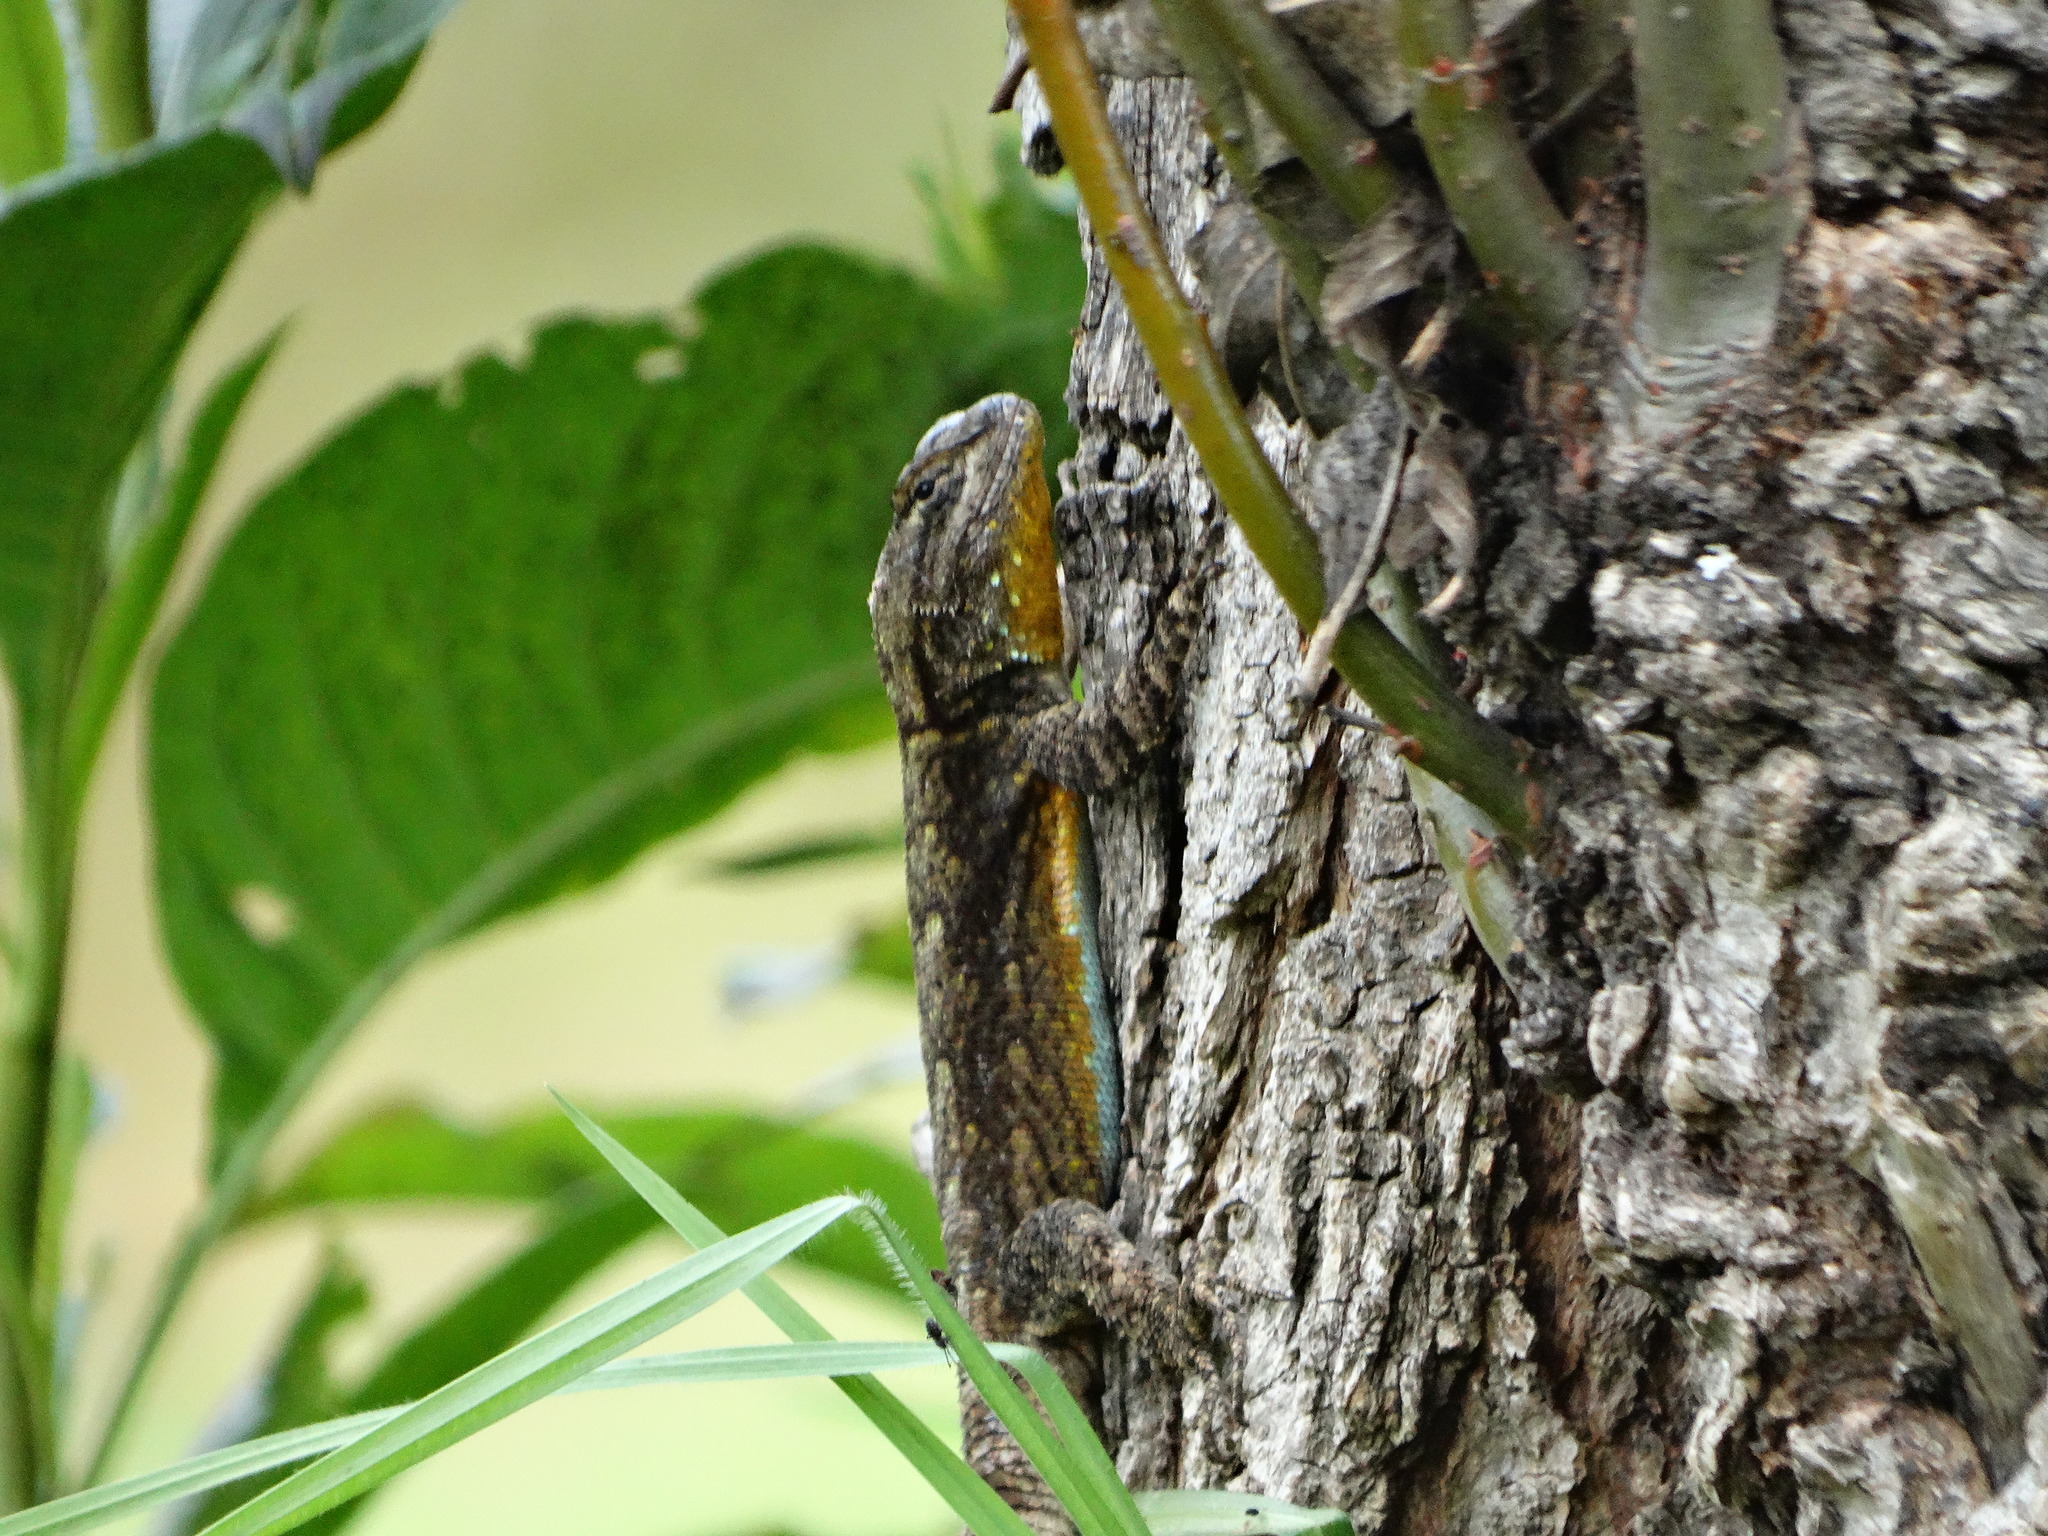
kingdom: Animalia
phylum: Chordata
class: Squamata
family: Phrynosomatidae
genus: Sceloporus
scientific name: Sceloporus grammicus
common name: Mesquite lizard
